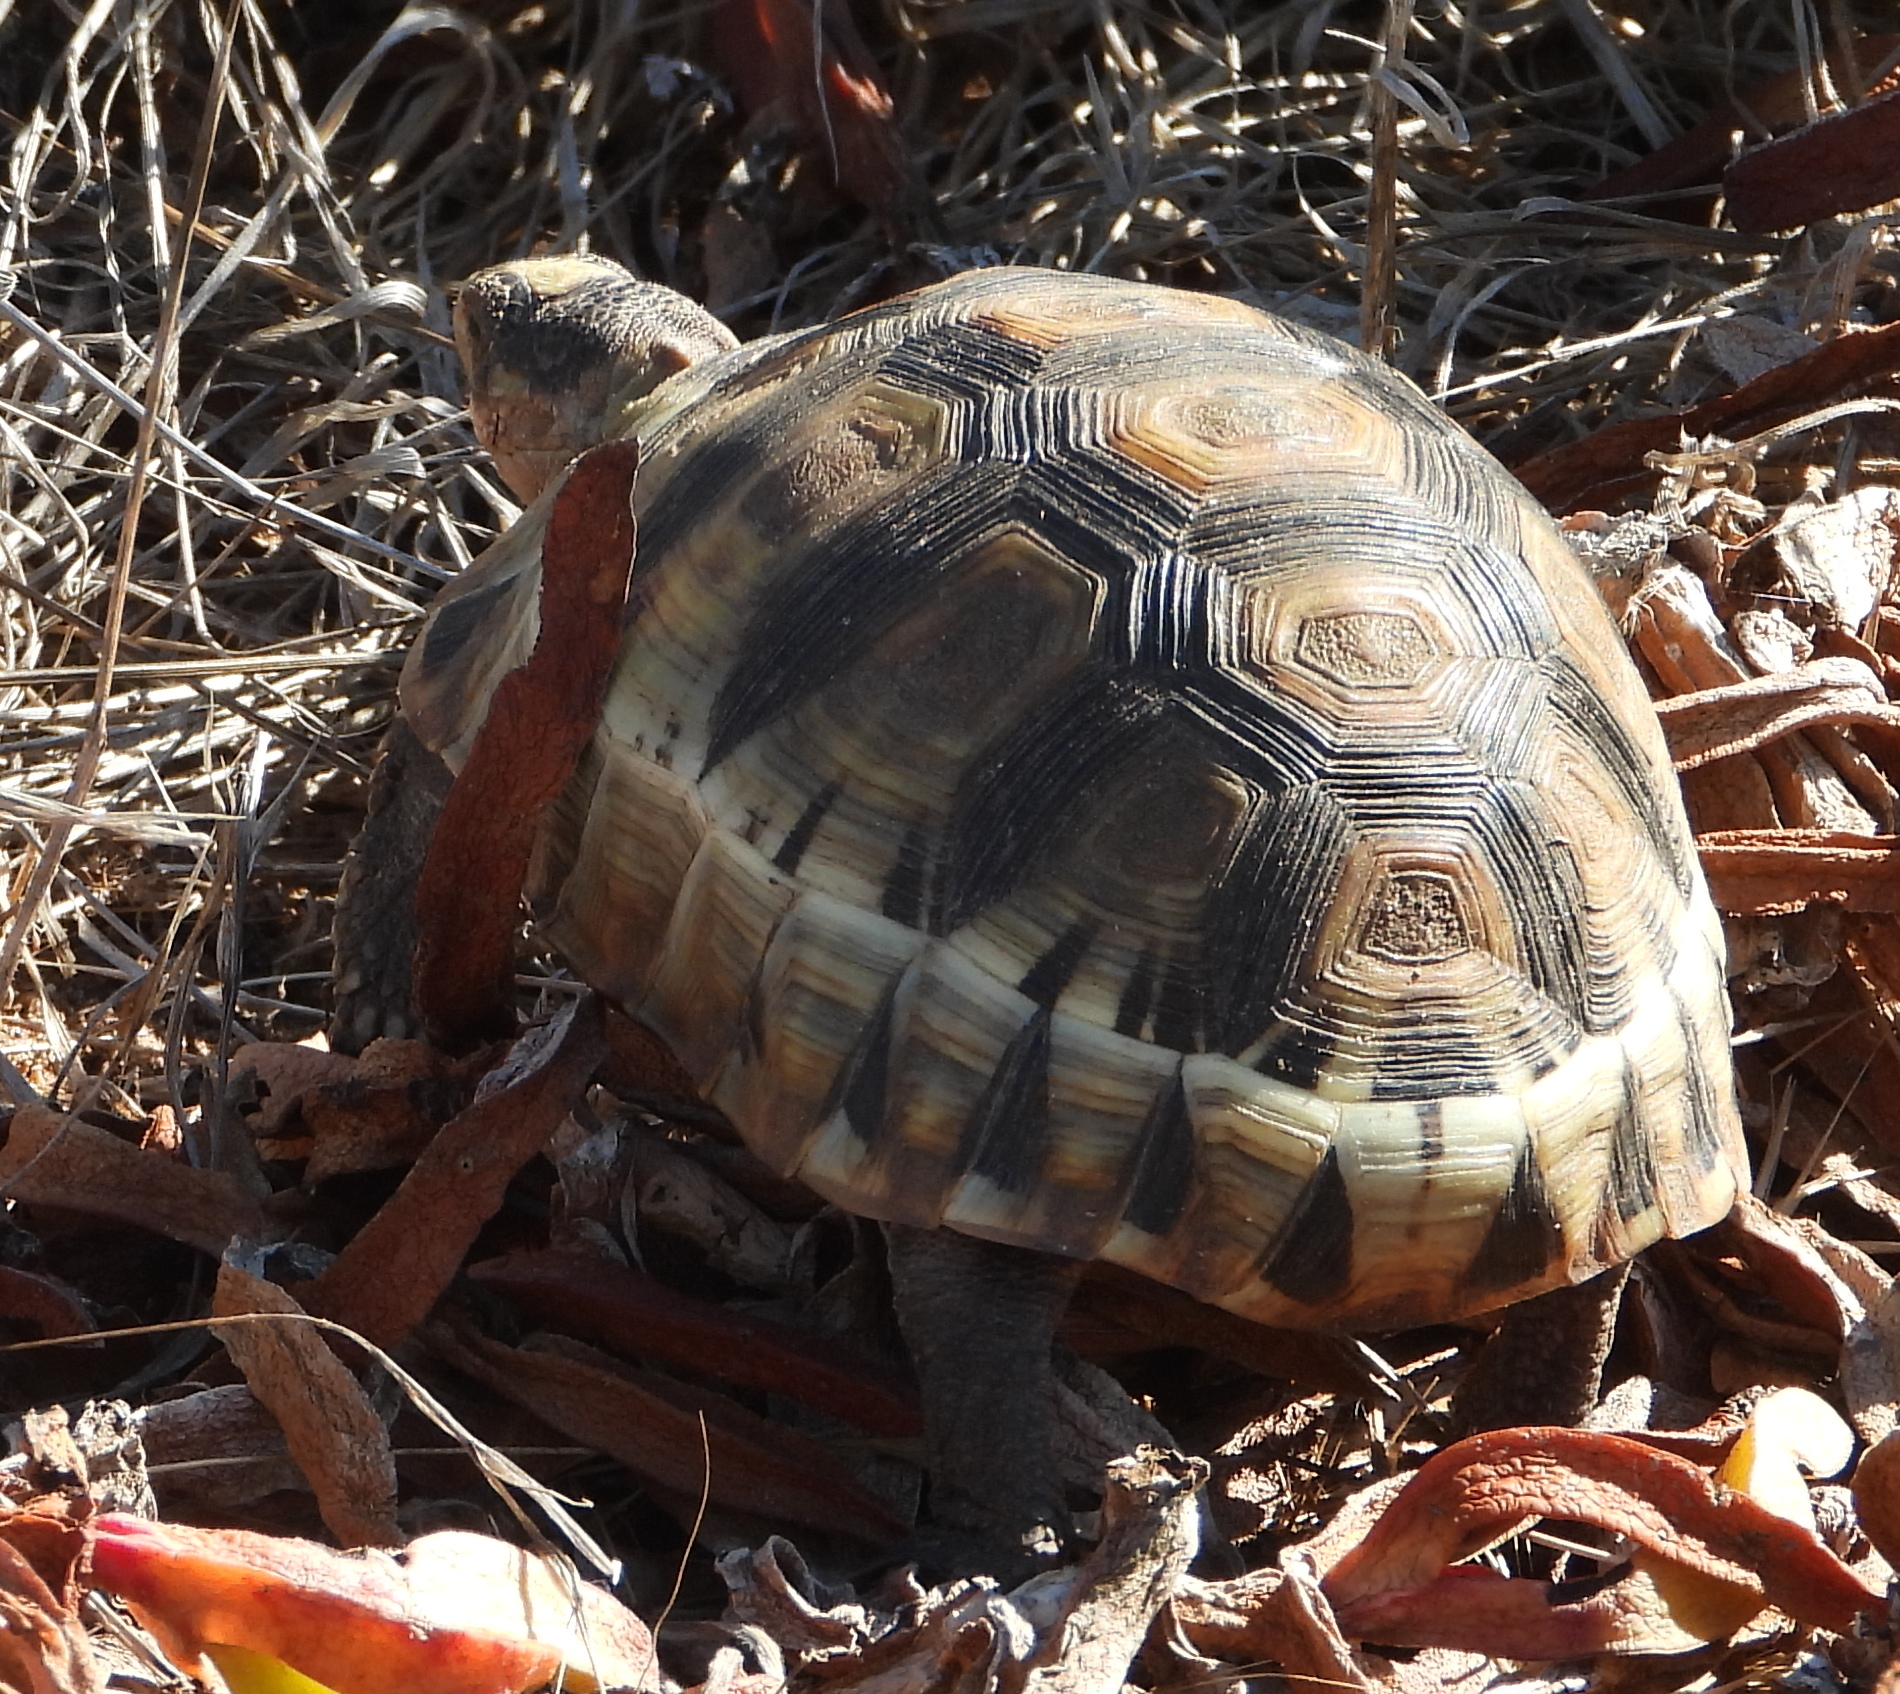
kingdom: Animalia
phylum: Chordata
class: Testudines
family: Testudinidae
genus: Chersina
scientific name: Chersina angulata
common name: South african bowsprit tortoise
